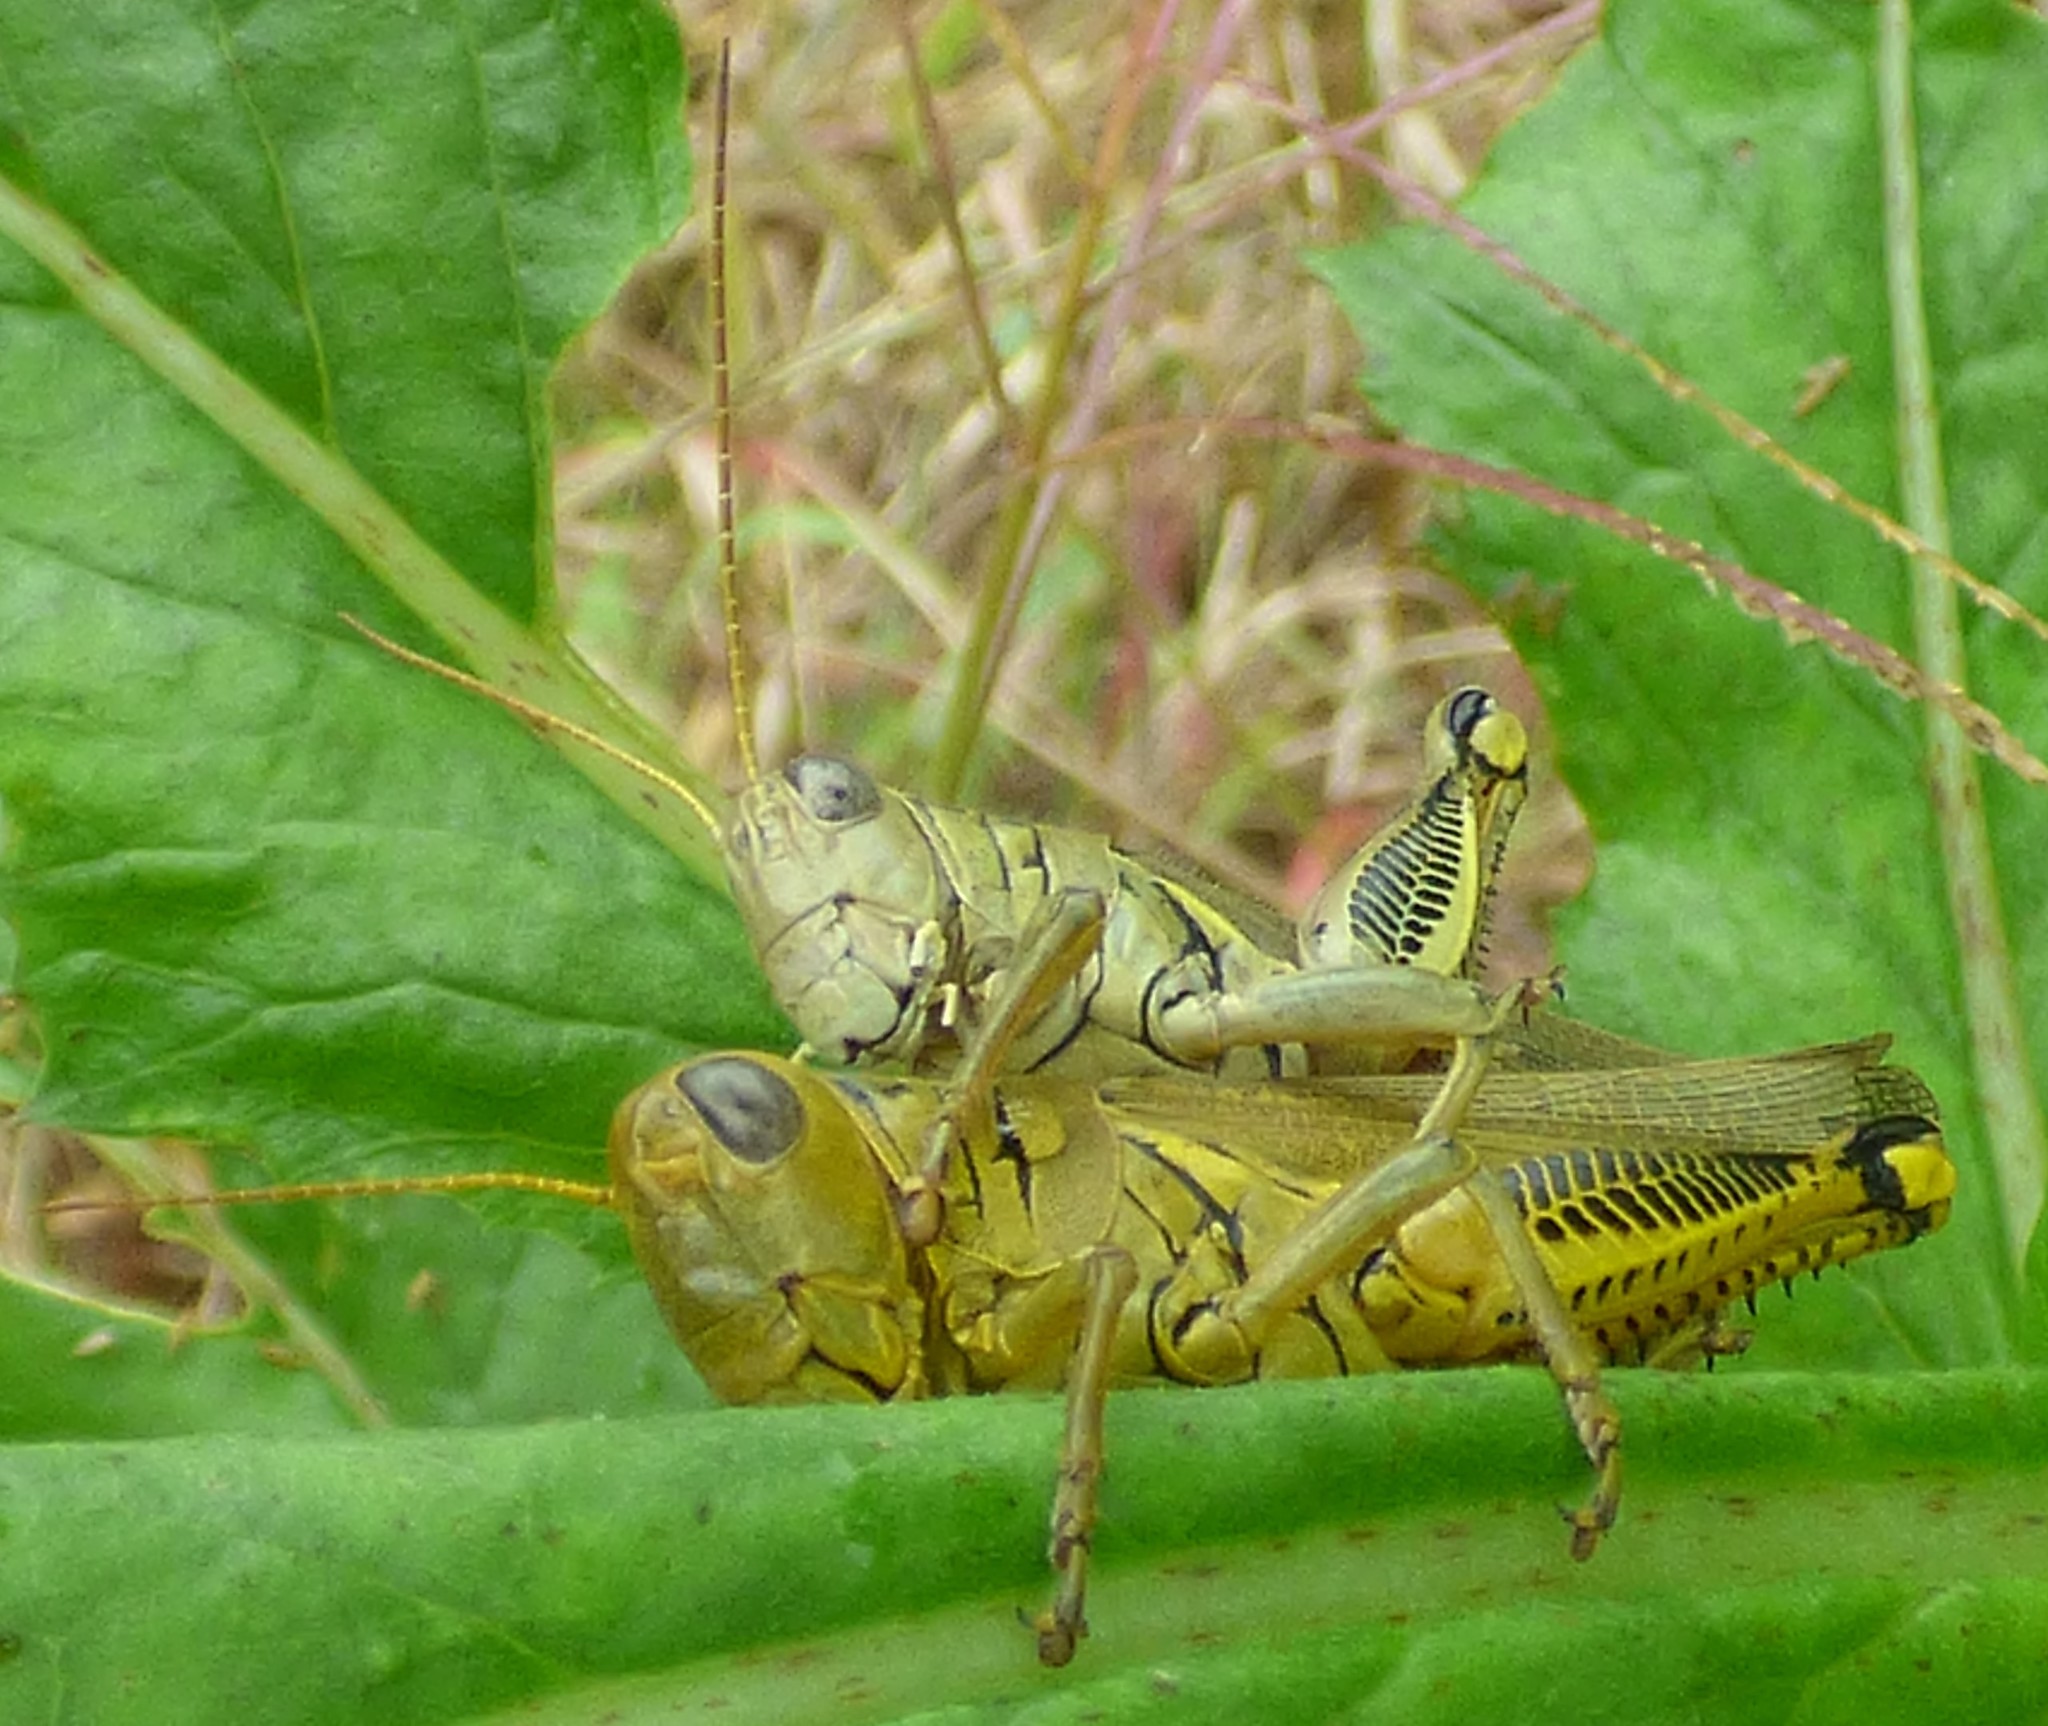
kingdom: Animalia
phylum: Arthropoda
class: Insecta
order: Orthoptera
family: Acrididae
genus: Melanoplus
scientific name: Melanoplus differentialis
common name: Differential grasshopper
